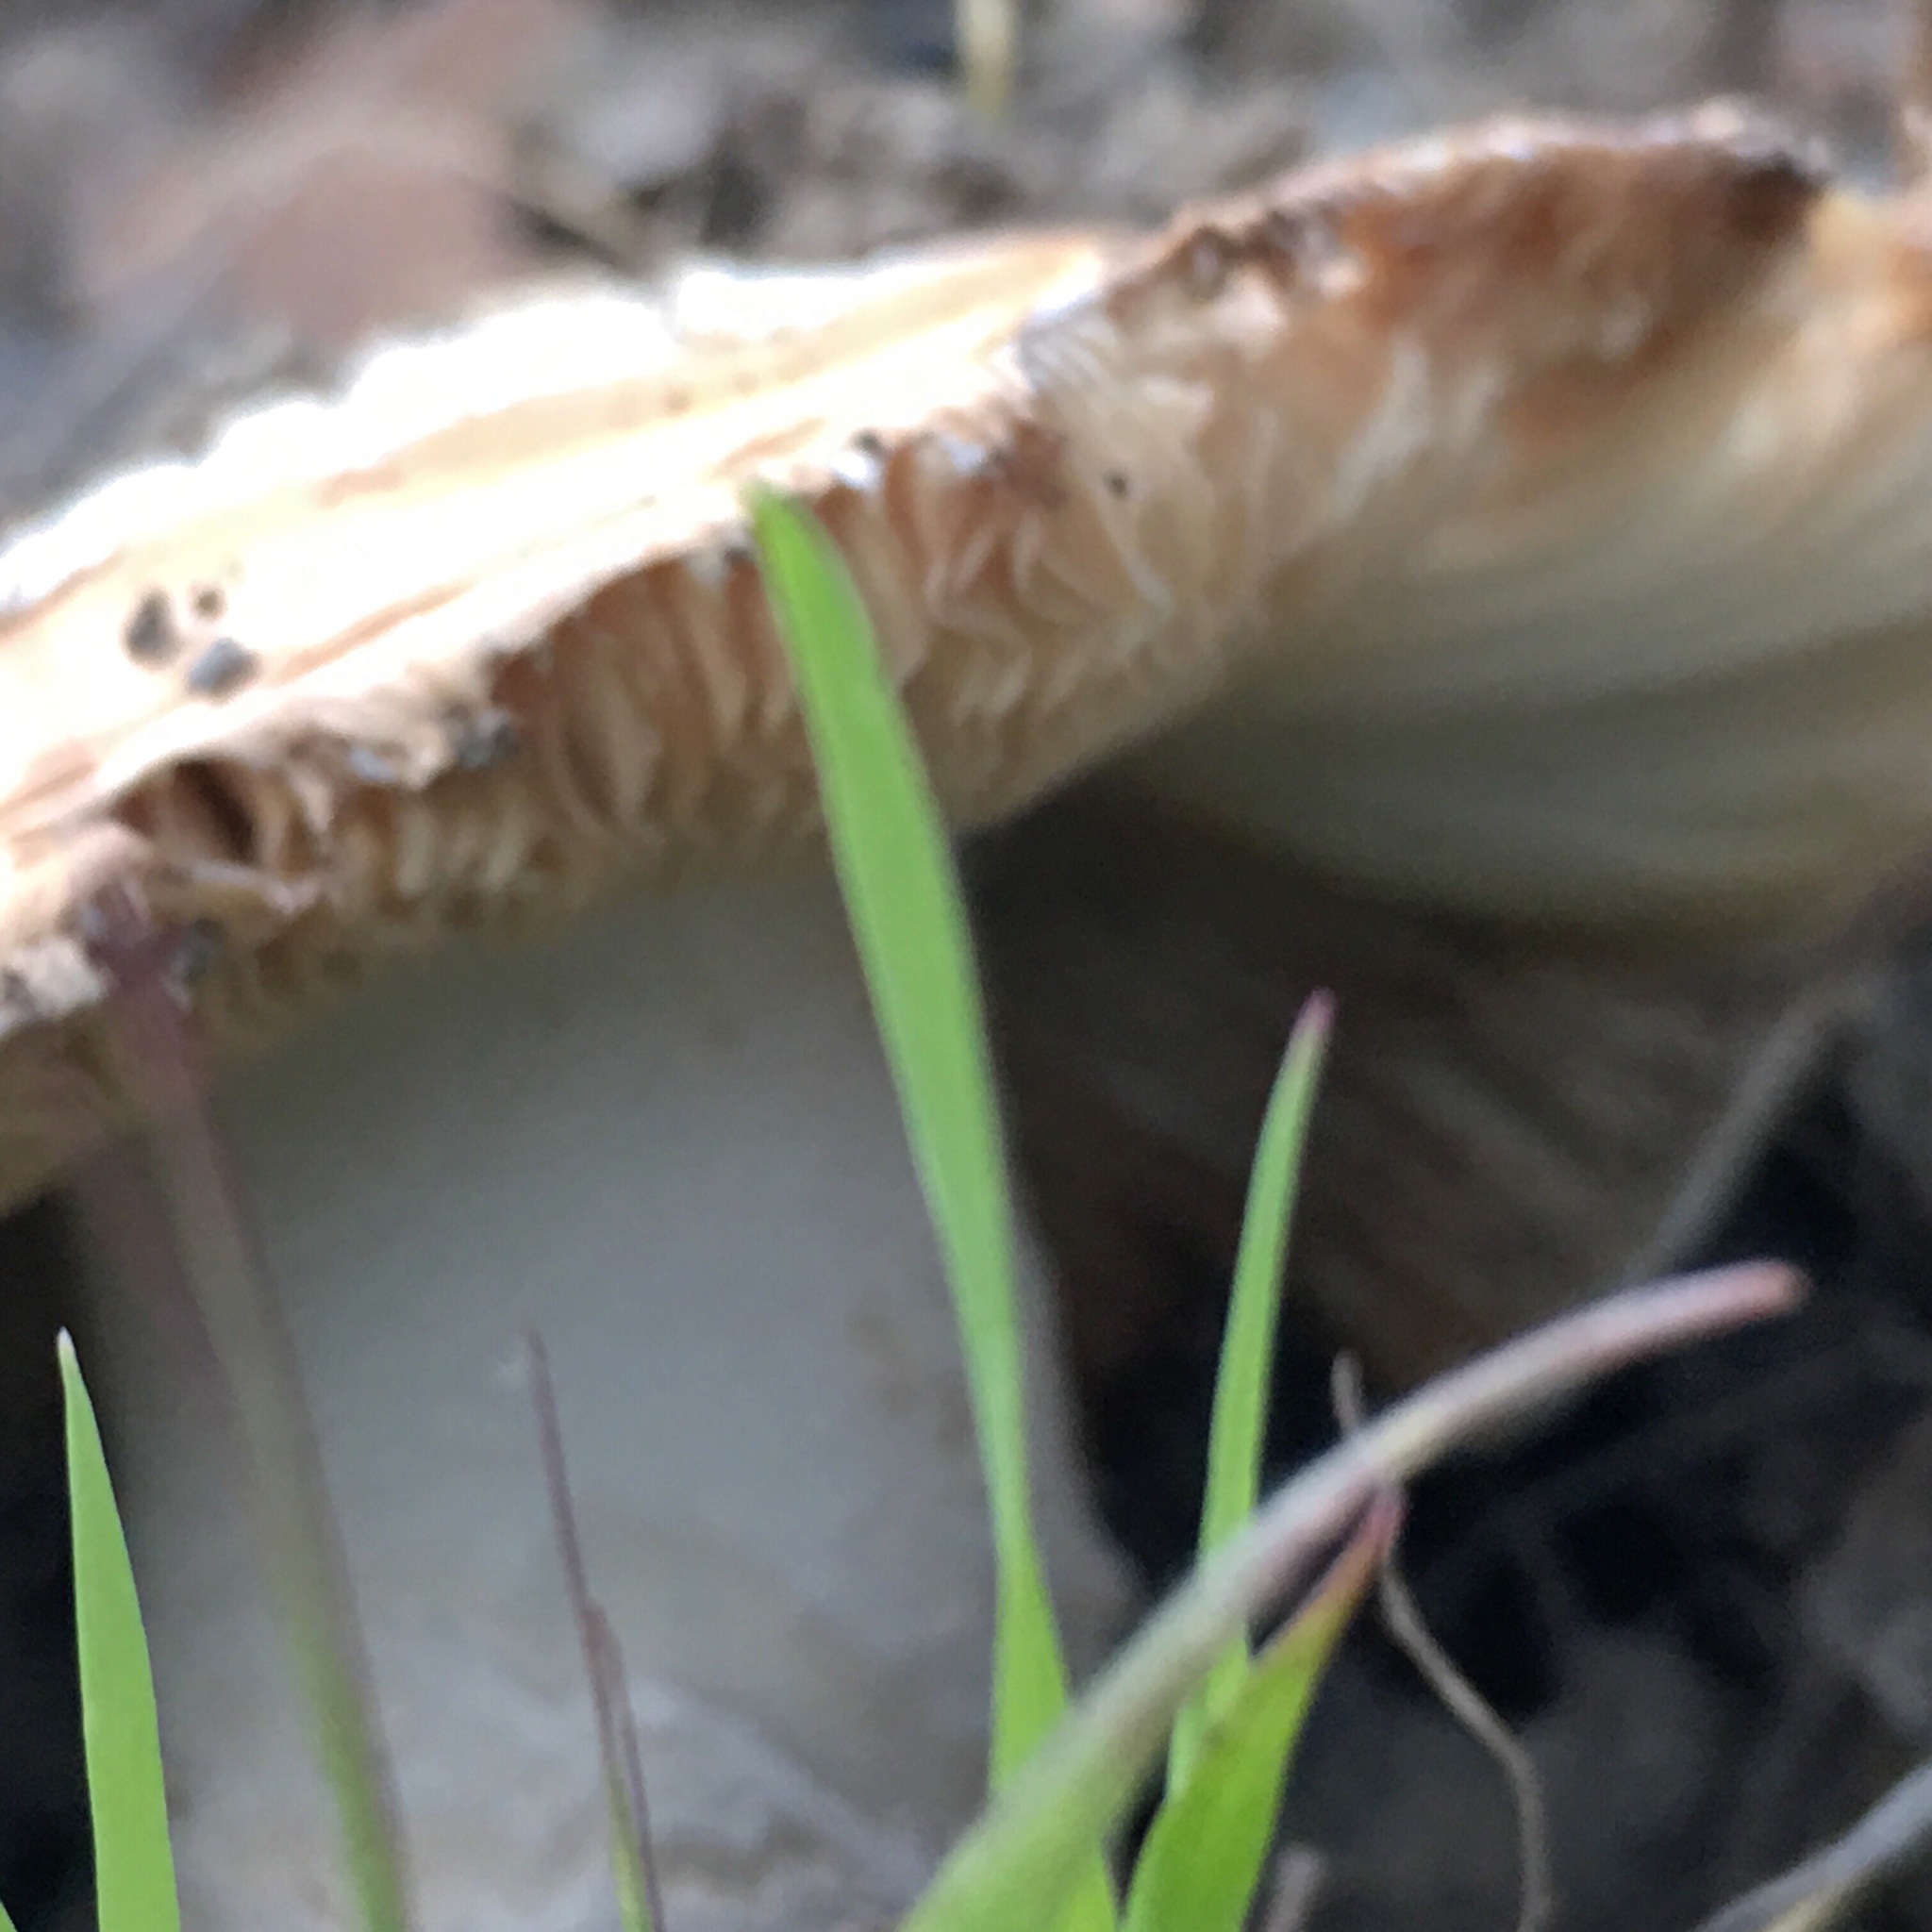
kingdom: Fungi
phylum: Basidiomycota
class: Agaricomycetes
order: Agaricales
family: Amanitaceae
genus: Amanita
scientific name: Amanita velosa
